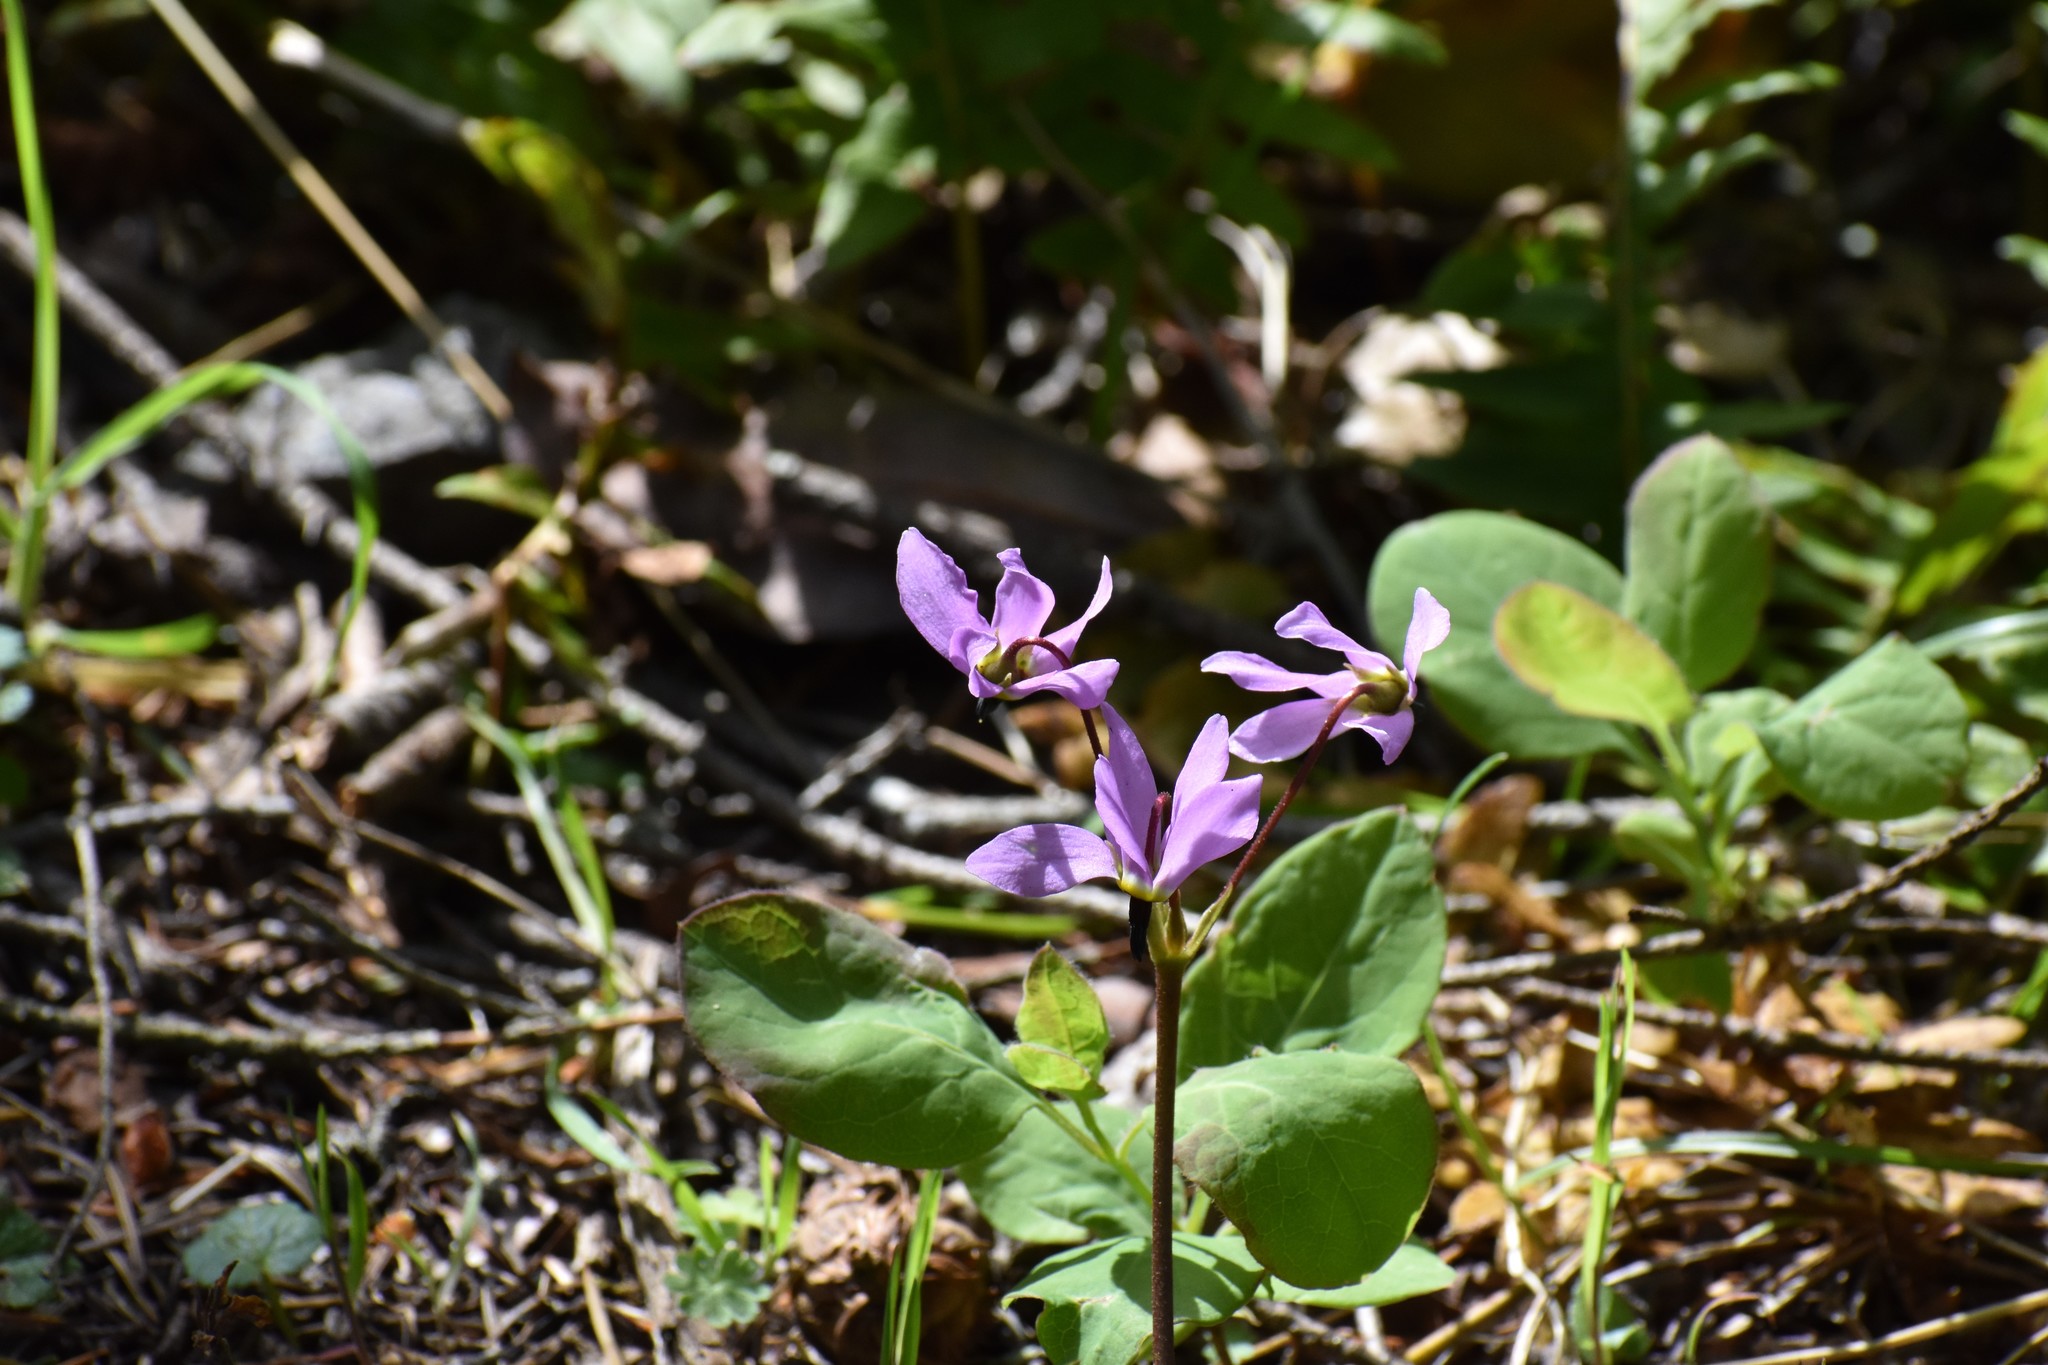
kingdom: Plantae
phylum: Tracheophyta
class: Magnoliopsida
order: Ericales
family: Primulaceae
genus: Dodecatheon
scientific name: Dodecatheon hendersonii
